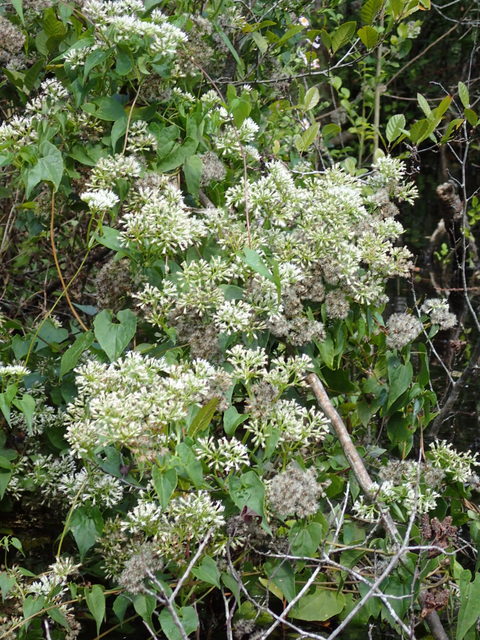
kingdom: Plantae
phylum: Tracheophyta
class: Magnoliopsida
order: Asterales
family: Asteraceae
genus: Mikania
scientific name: Mikania scandens
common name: Climbing hempvine
